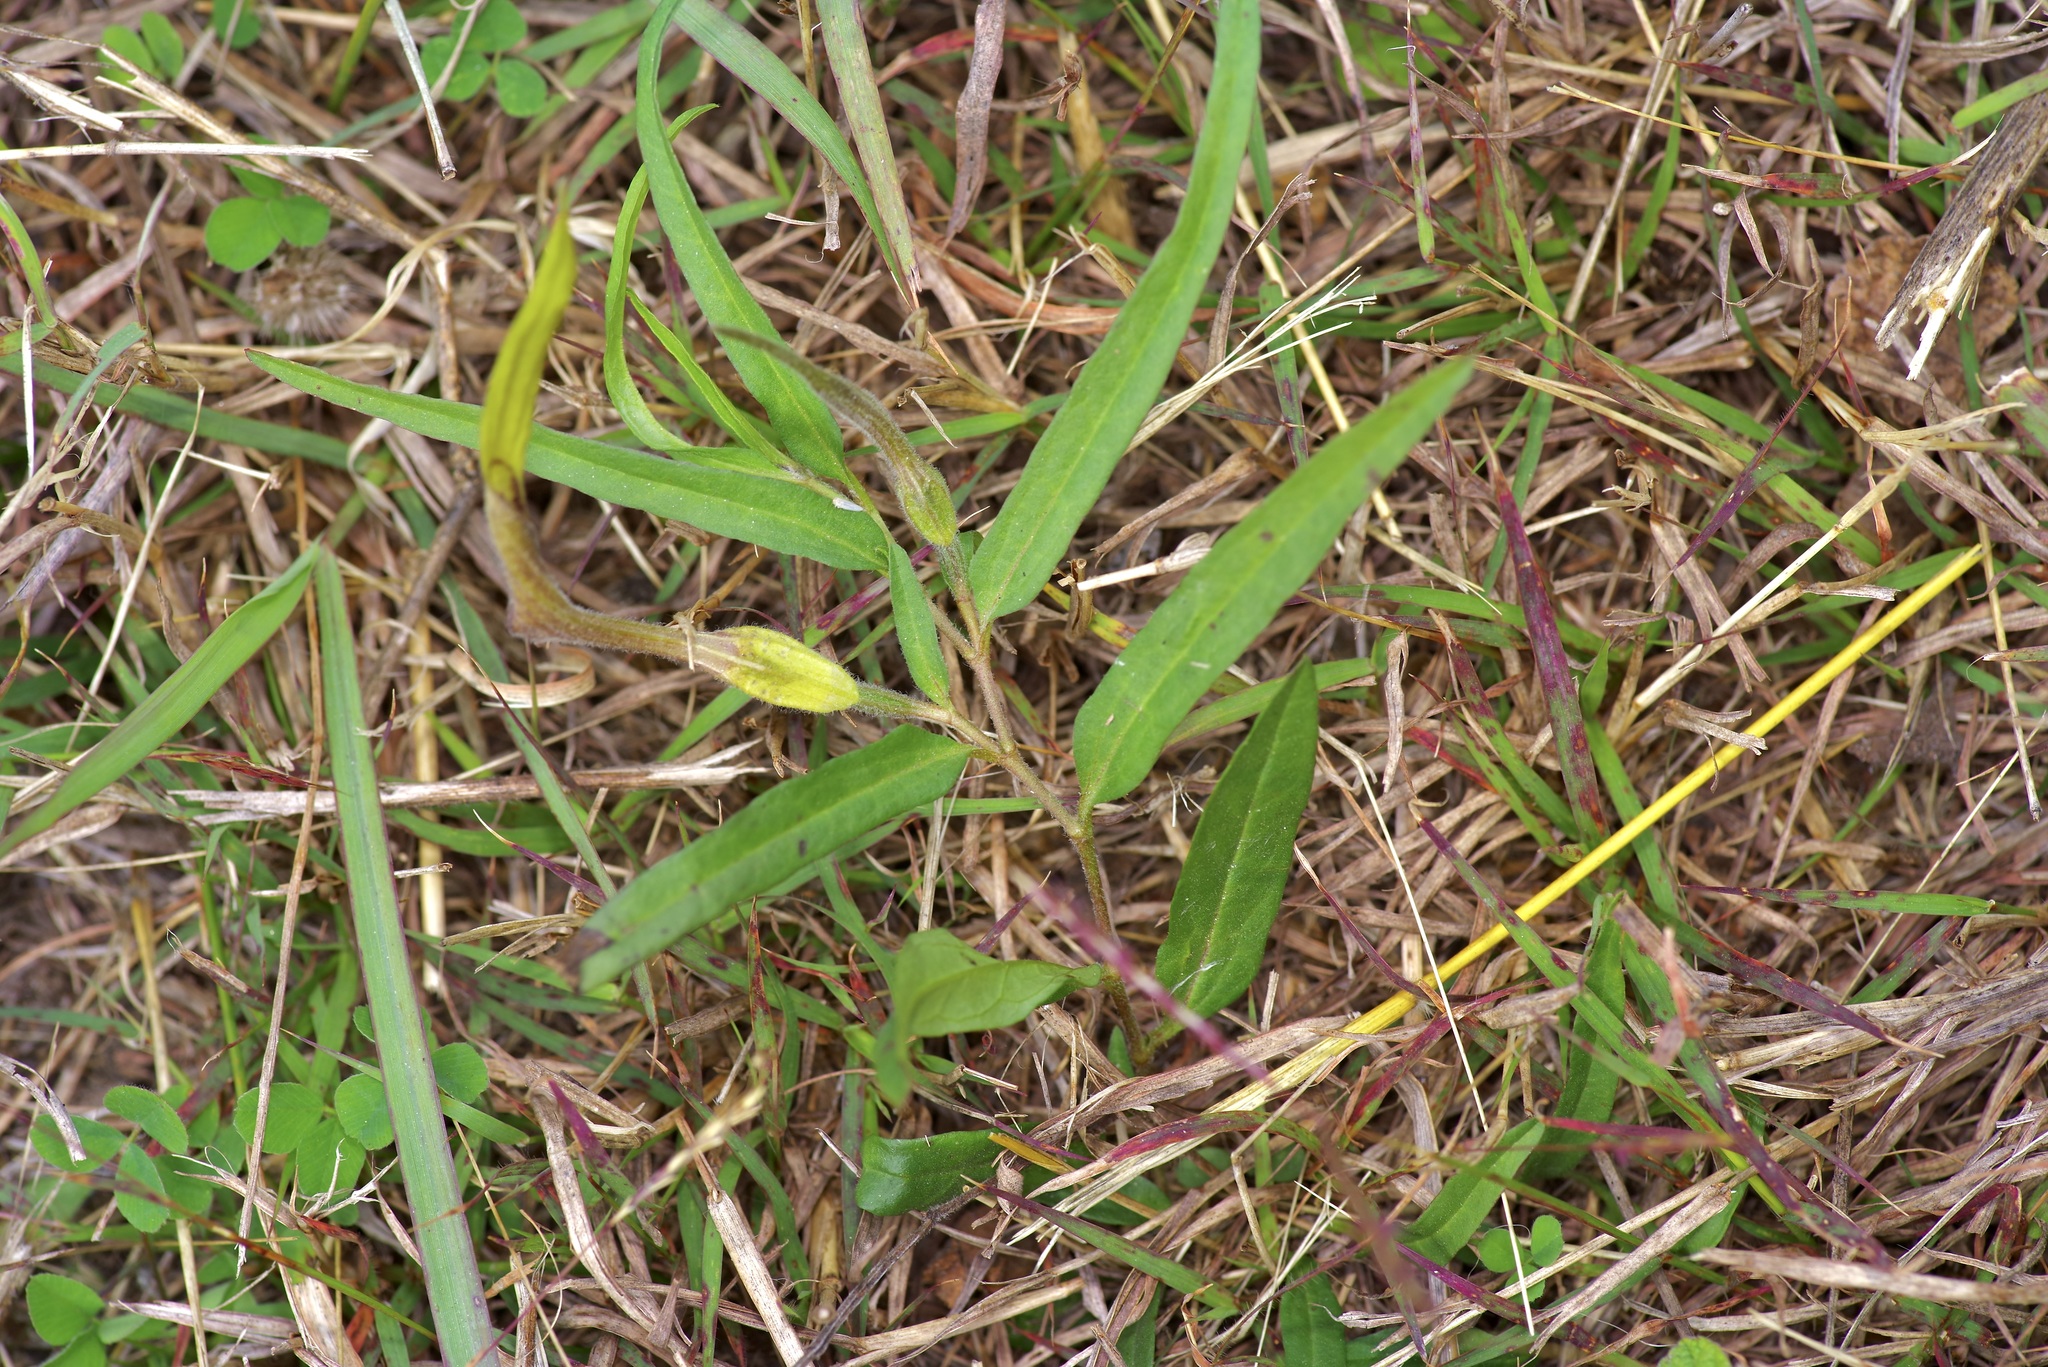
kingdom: Plantae
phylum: Tracheophyta
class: Magnoliopsida
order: Piperales
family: Aristolochiaceae
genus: Aristolochia
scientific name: Aristolochia erecta
